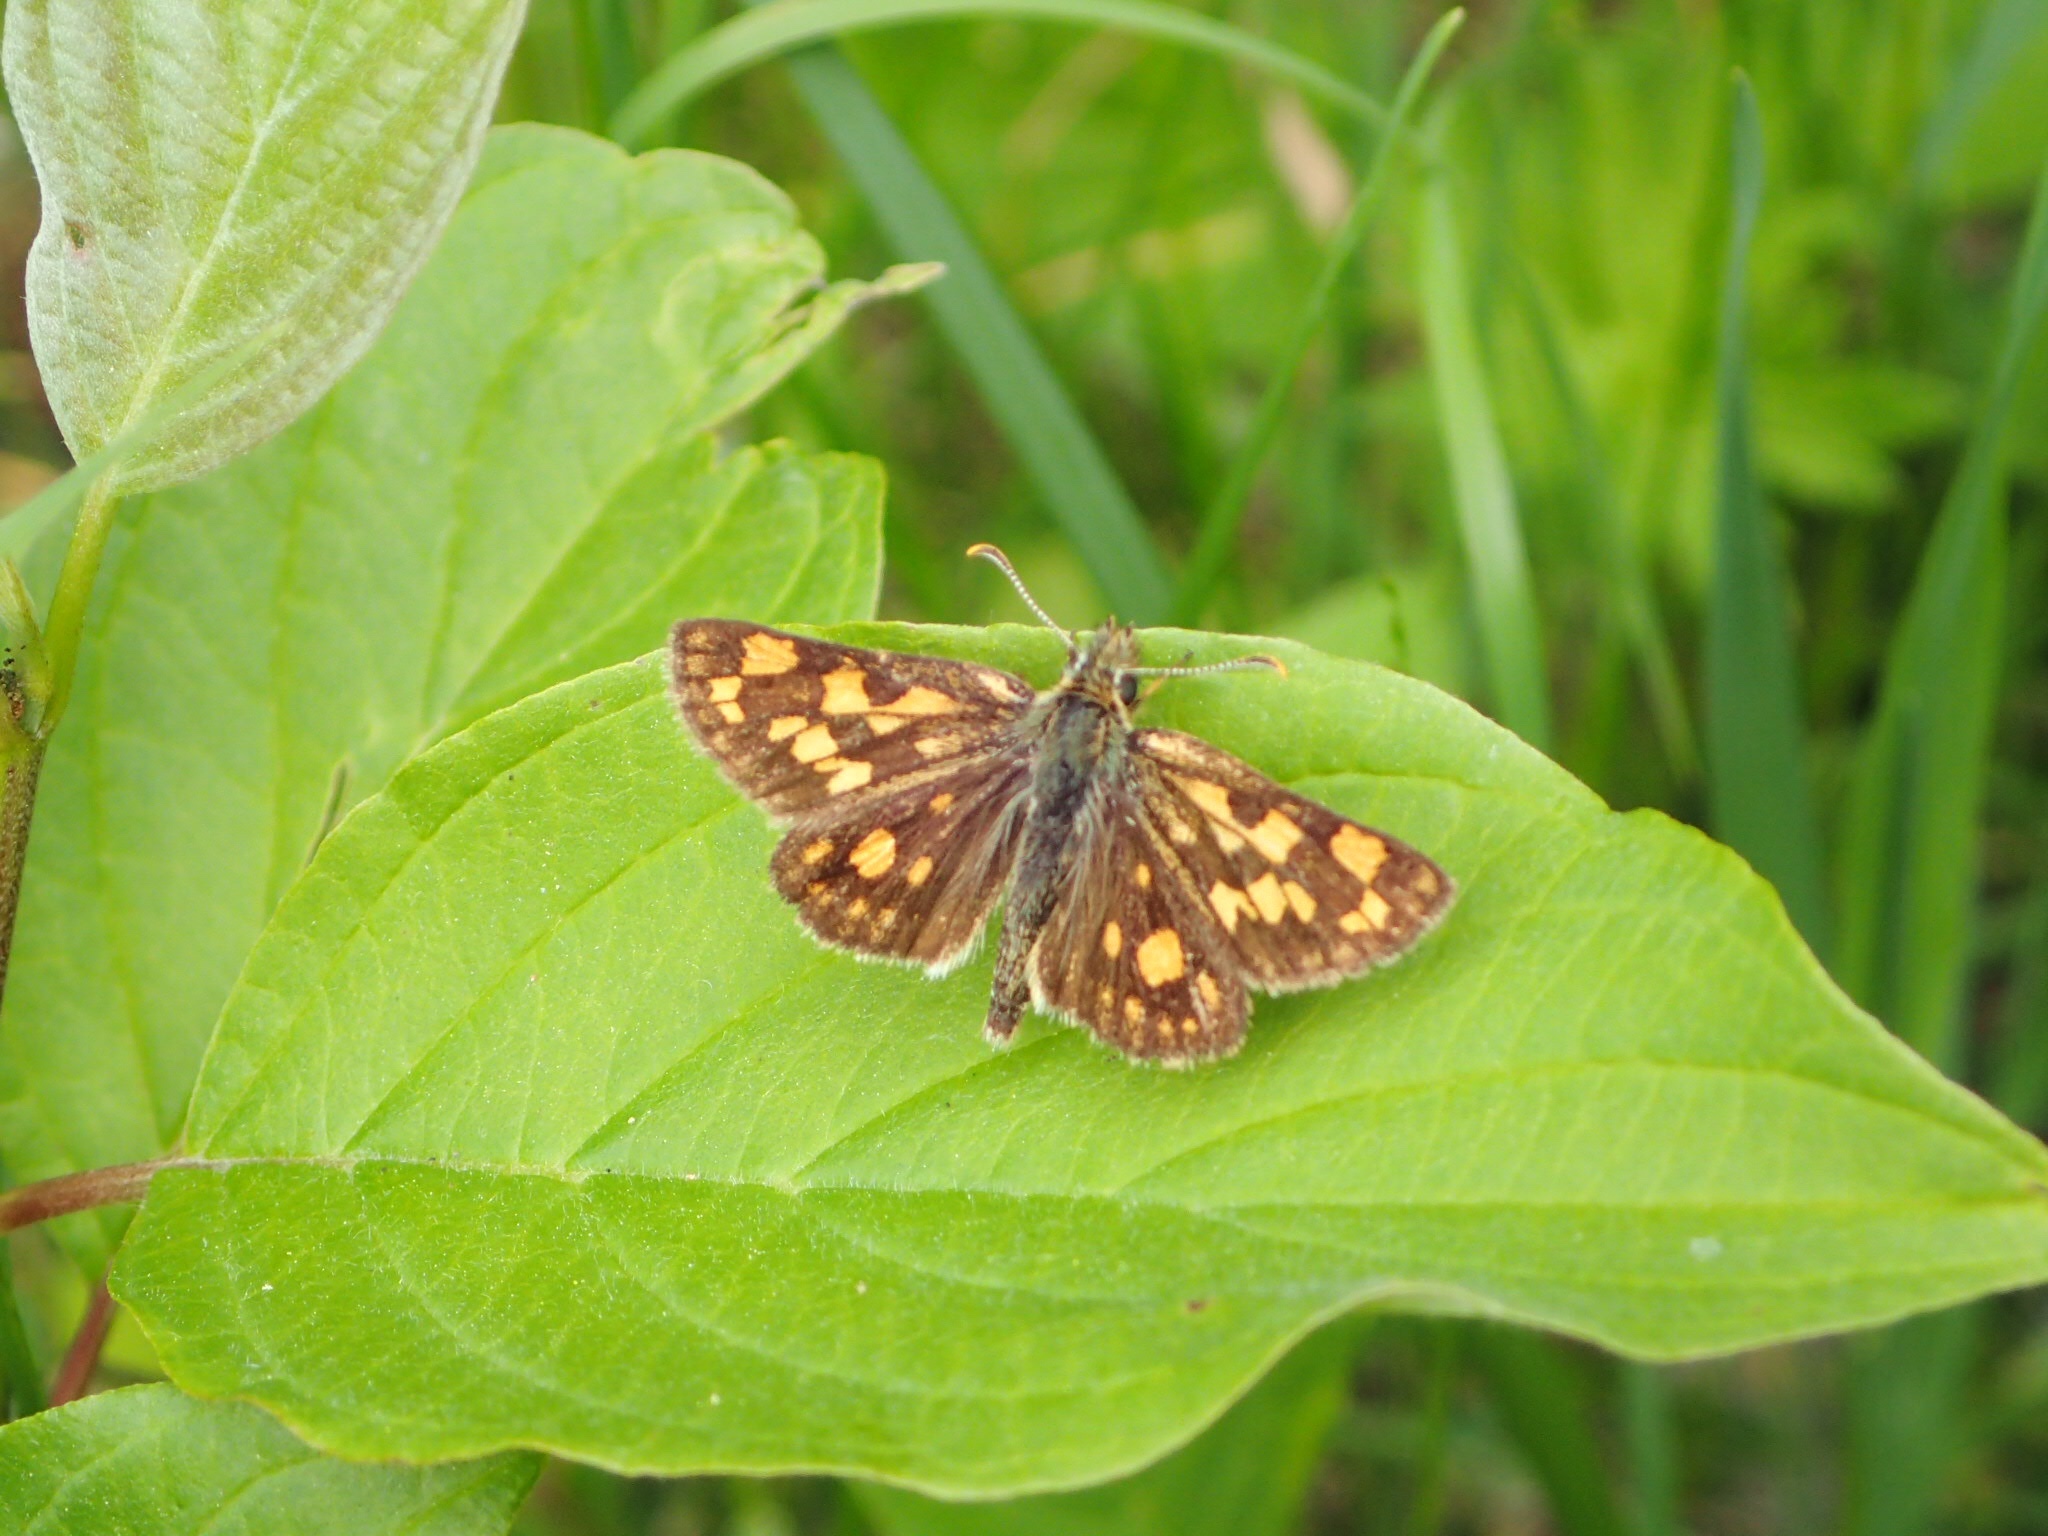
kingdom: Animalia
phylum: Arthropoda
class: Insecta
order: Lepidoptera
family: Hesperiidae
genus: Carterocephalus
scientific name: Carterocephalus mandan
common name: Arctic skipperling
